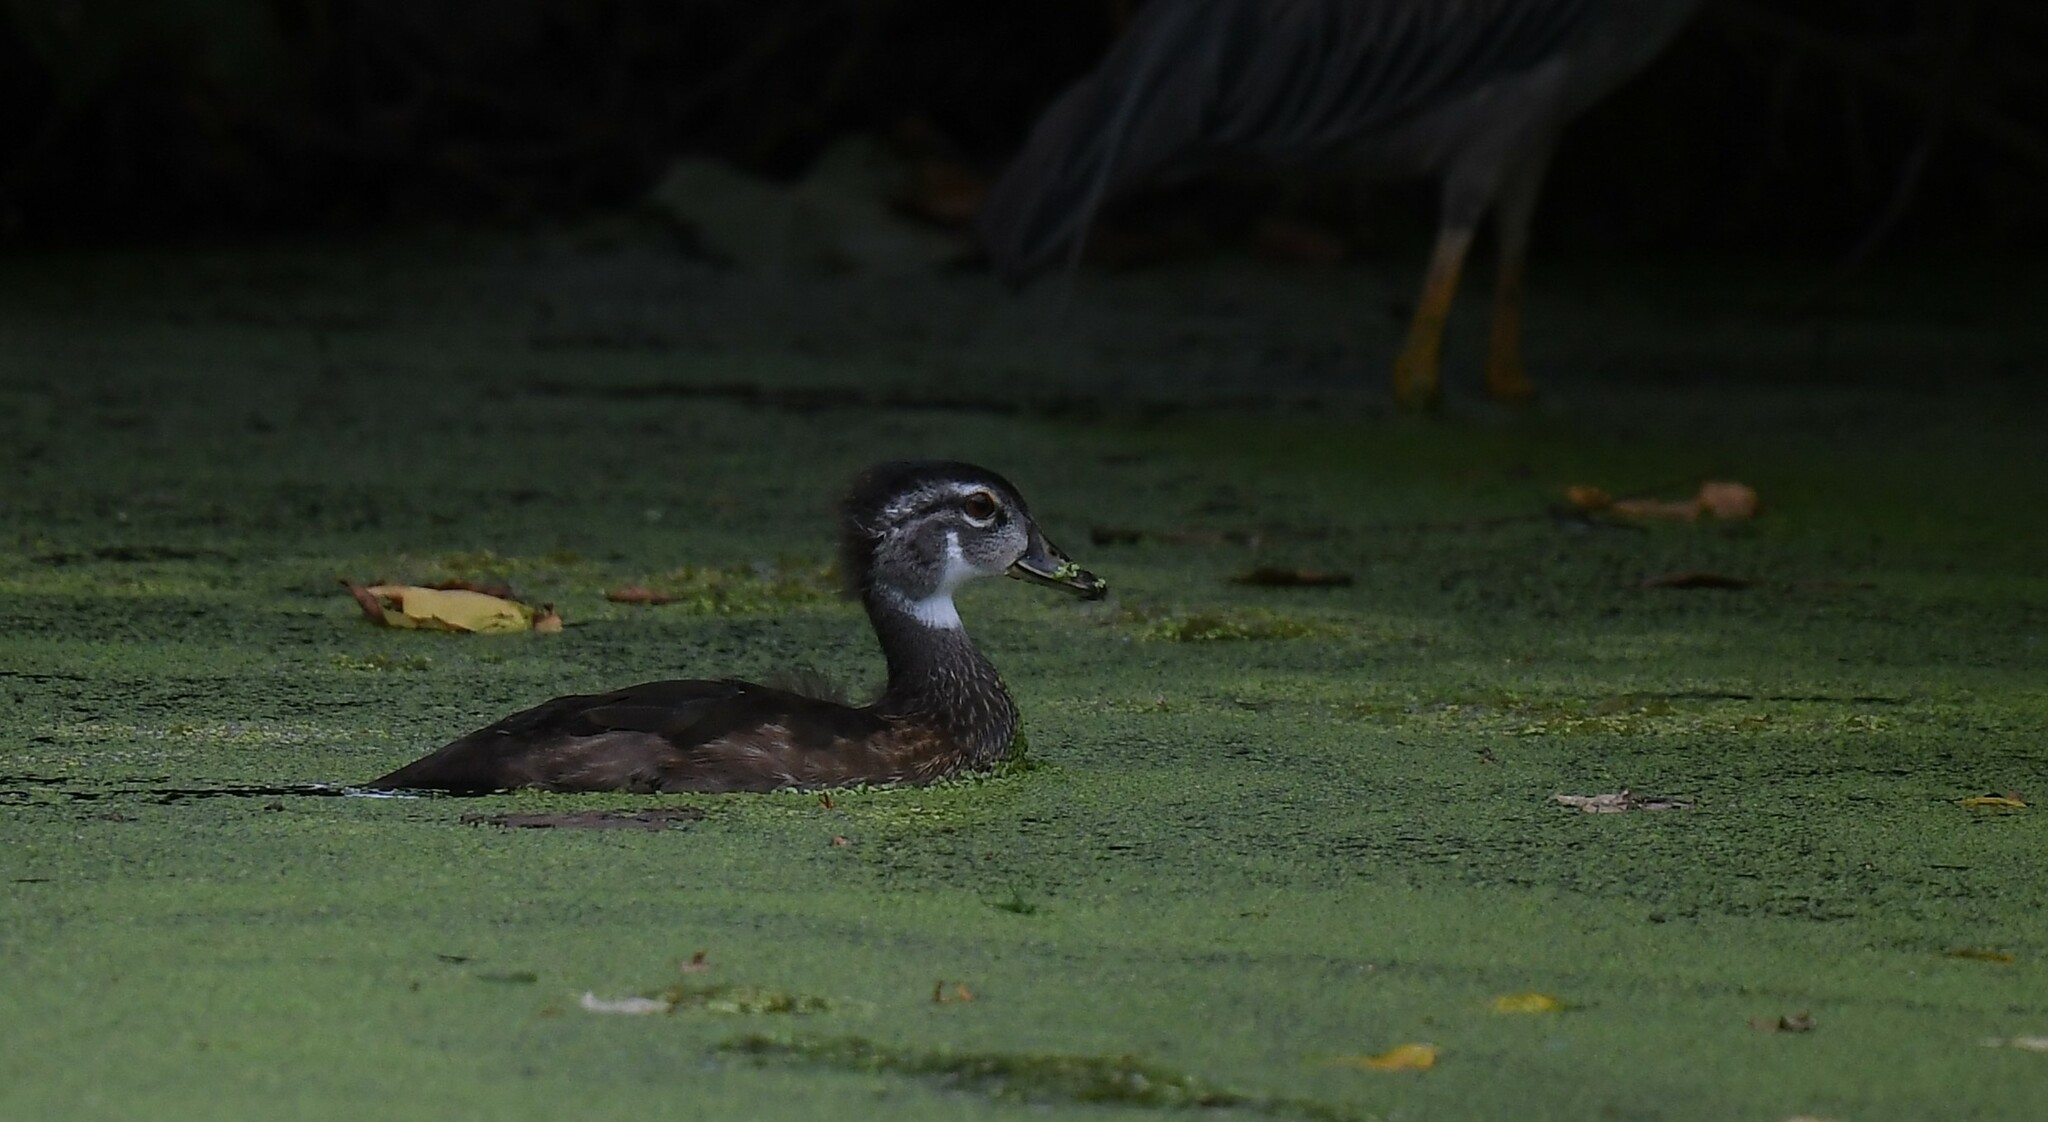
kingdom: Animalia
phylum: Chordata
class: Aves
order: Anseriformes
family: Anatidae
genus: Aix
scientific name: Aix sponsa
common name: Wood duck
